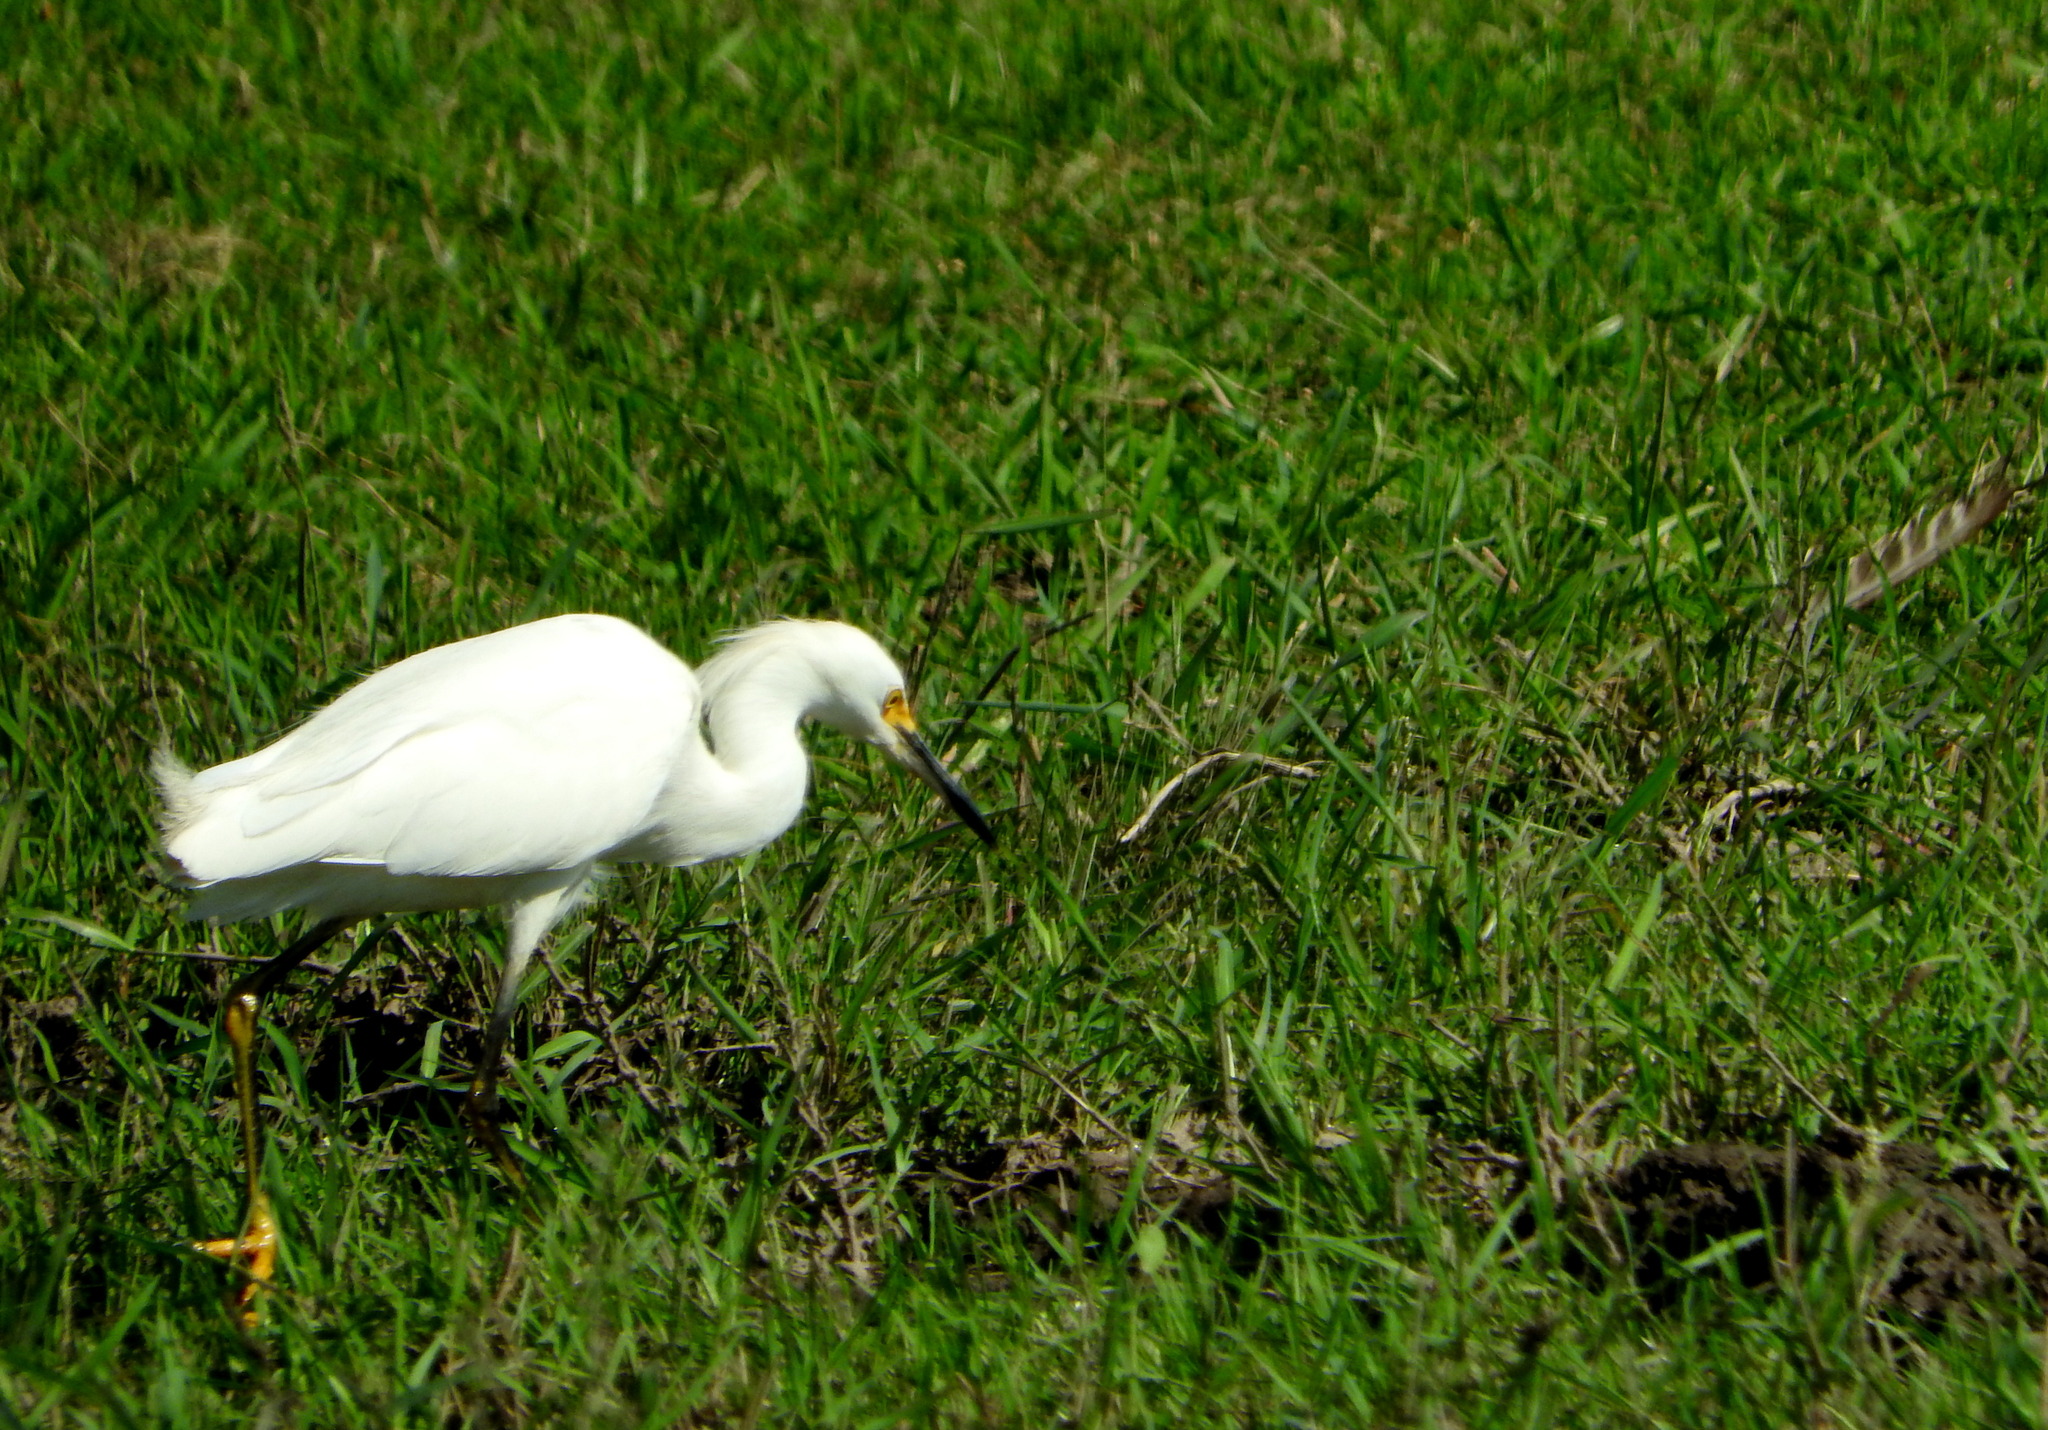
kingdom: Animalia
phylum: Chordata
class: Aves
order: Pelecaniformes
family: Ardeidae
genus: Egretta
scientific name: Egretta thula
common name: Snowy egret
